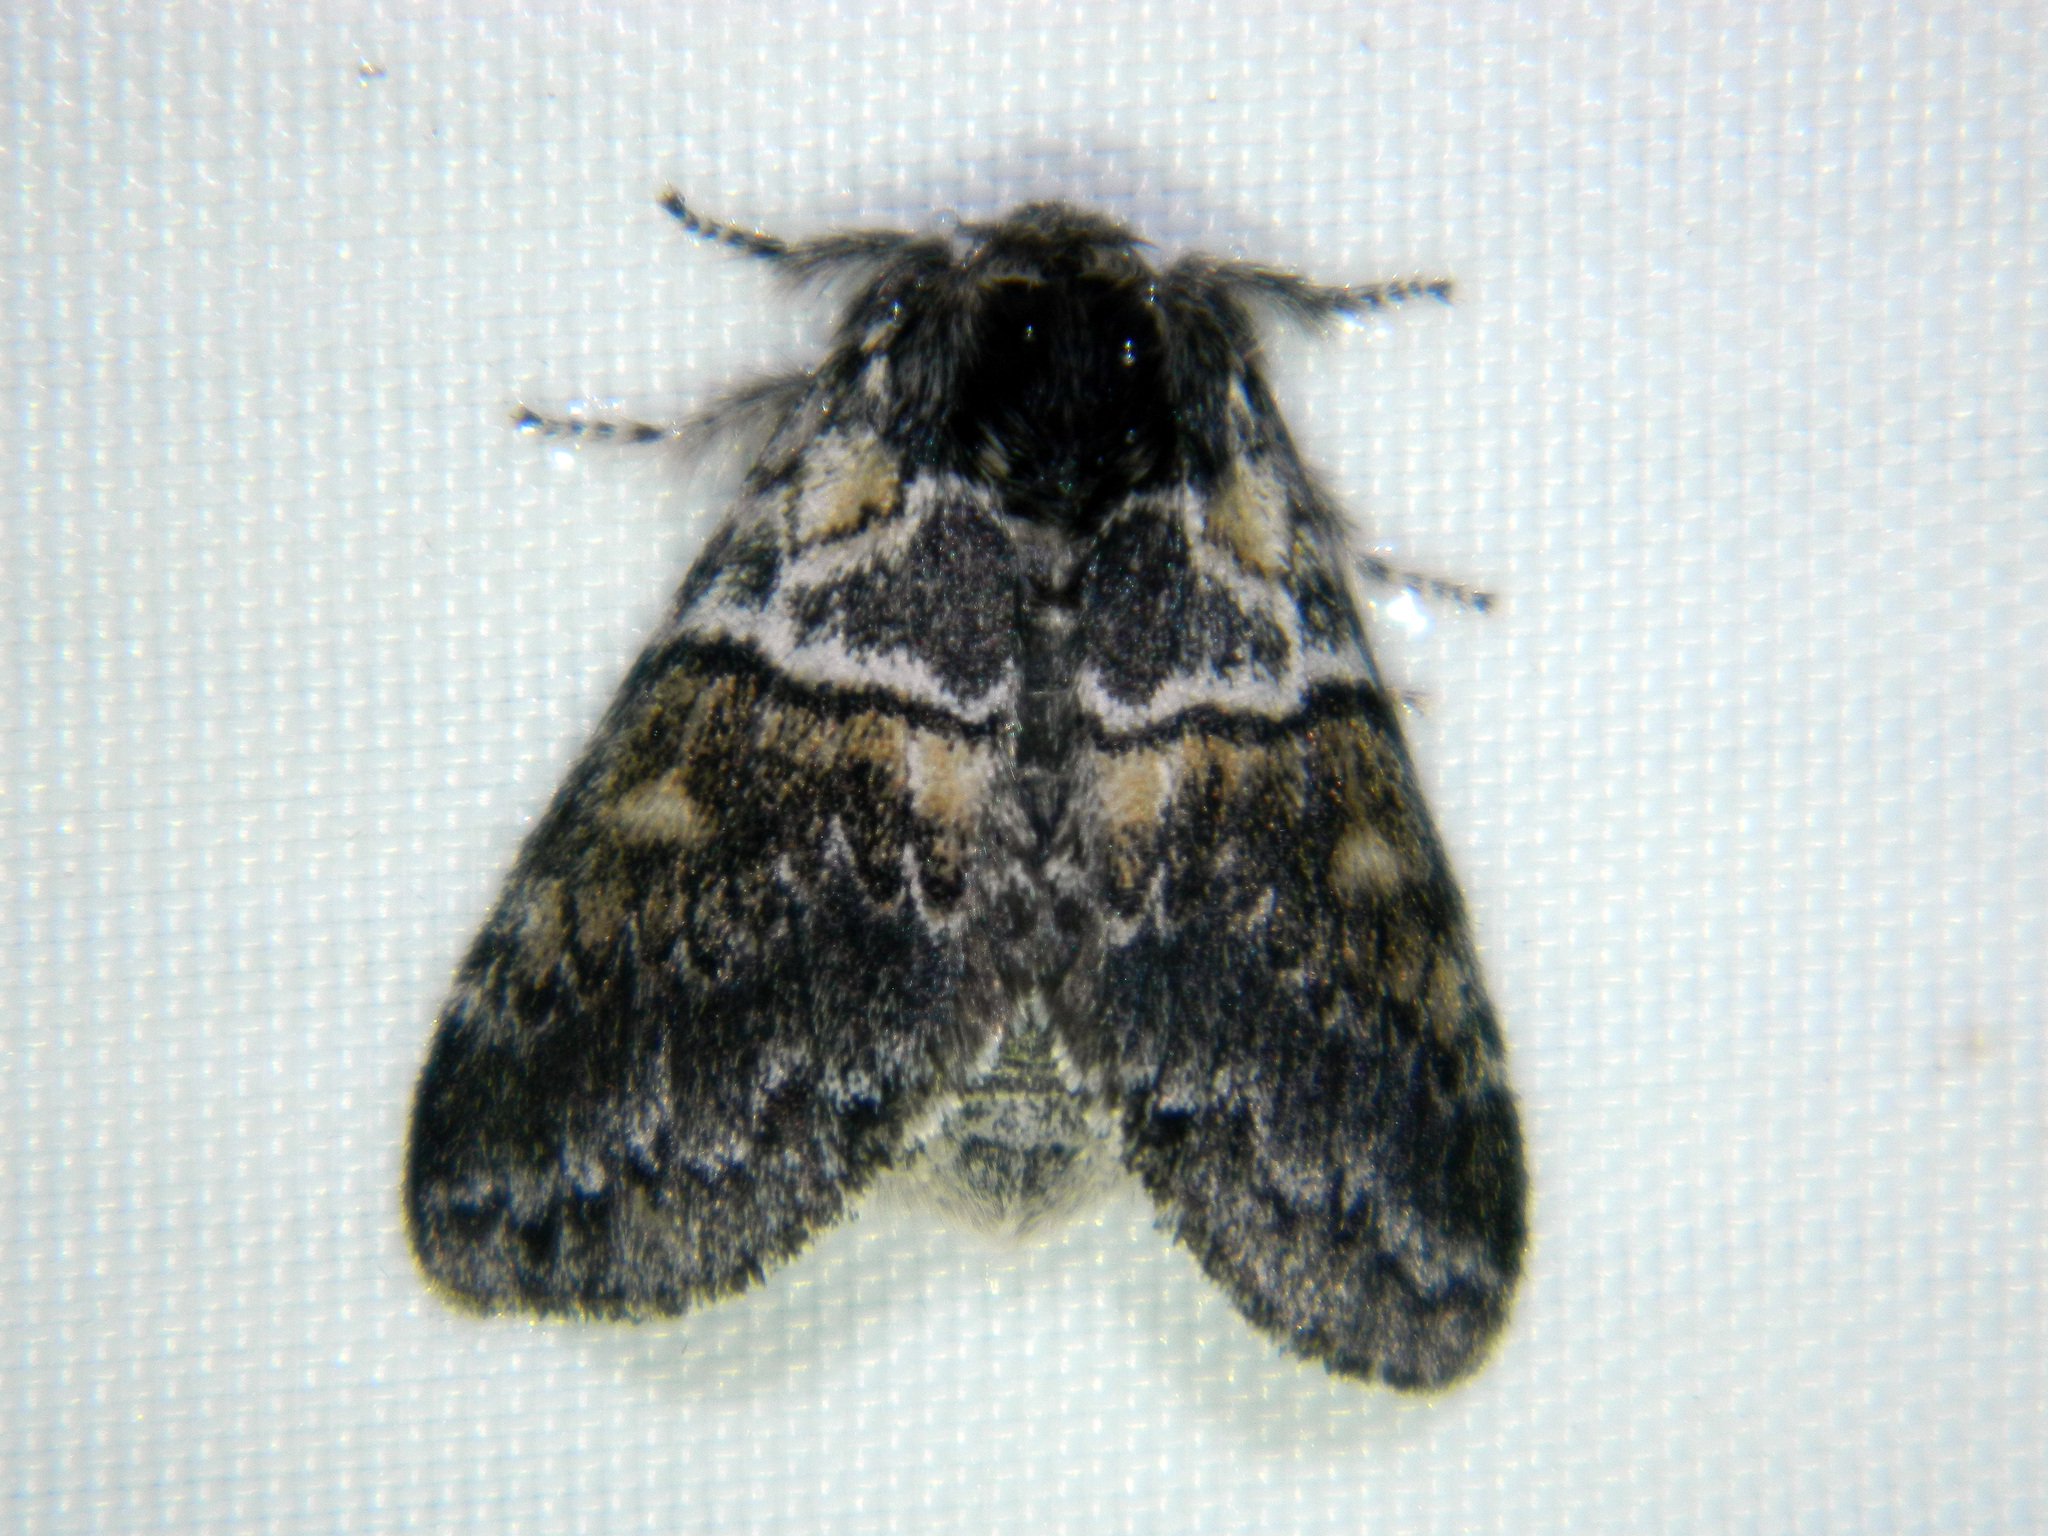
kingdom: Animalia
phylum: Arthropoda
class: Insecta
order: Lepidoptera
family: Notodontidae
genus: Gluphisia
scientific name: Gluphisia septentrionis
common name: Common gluphisia
